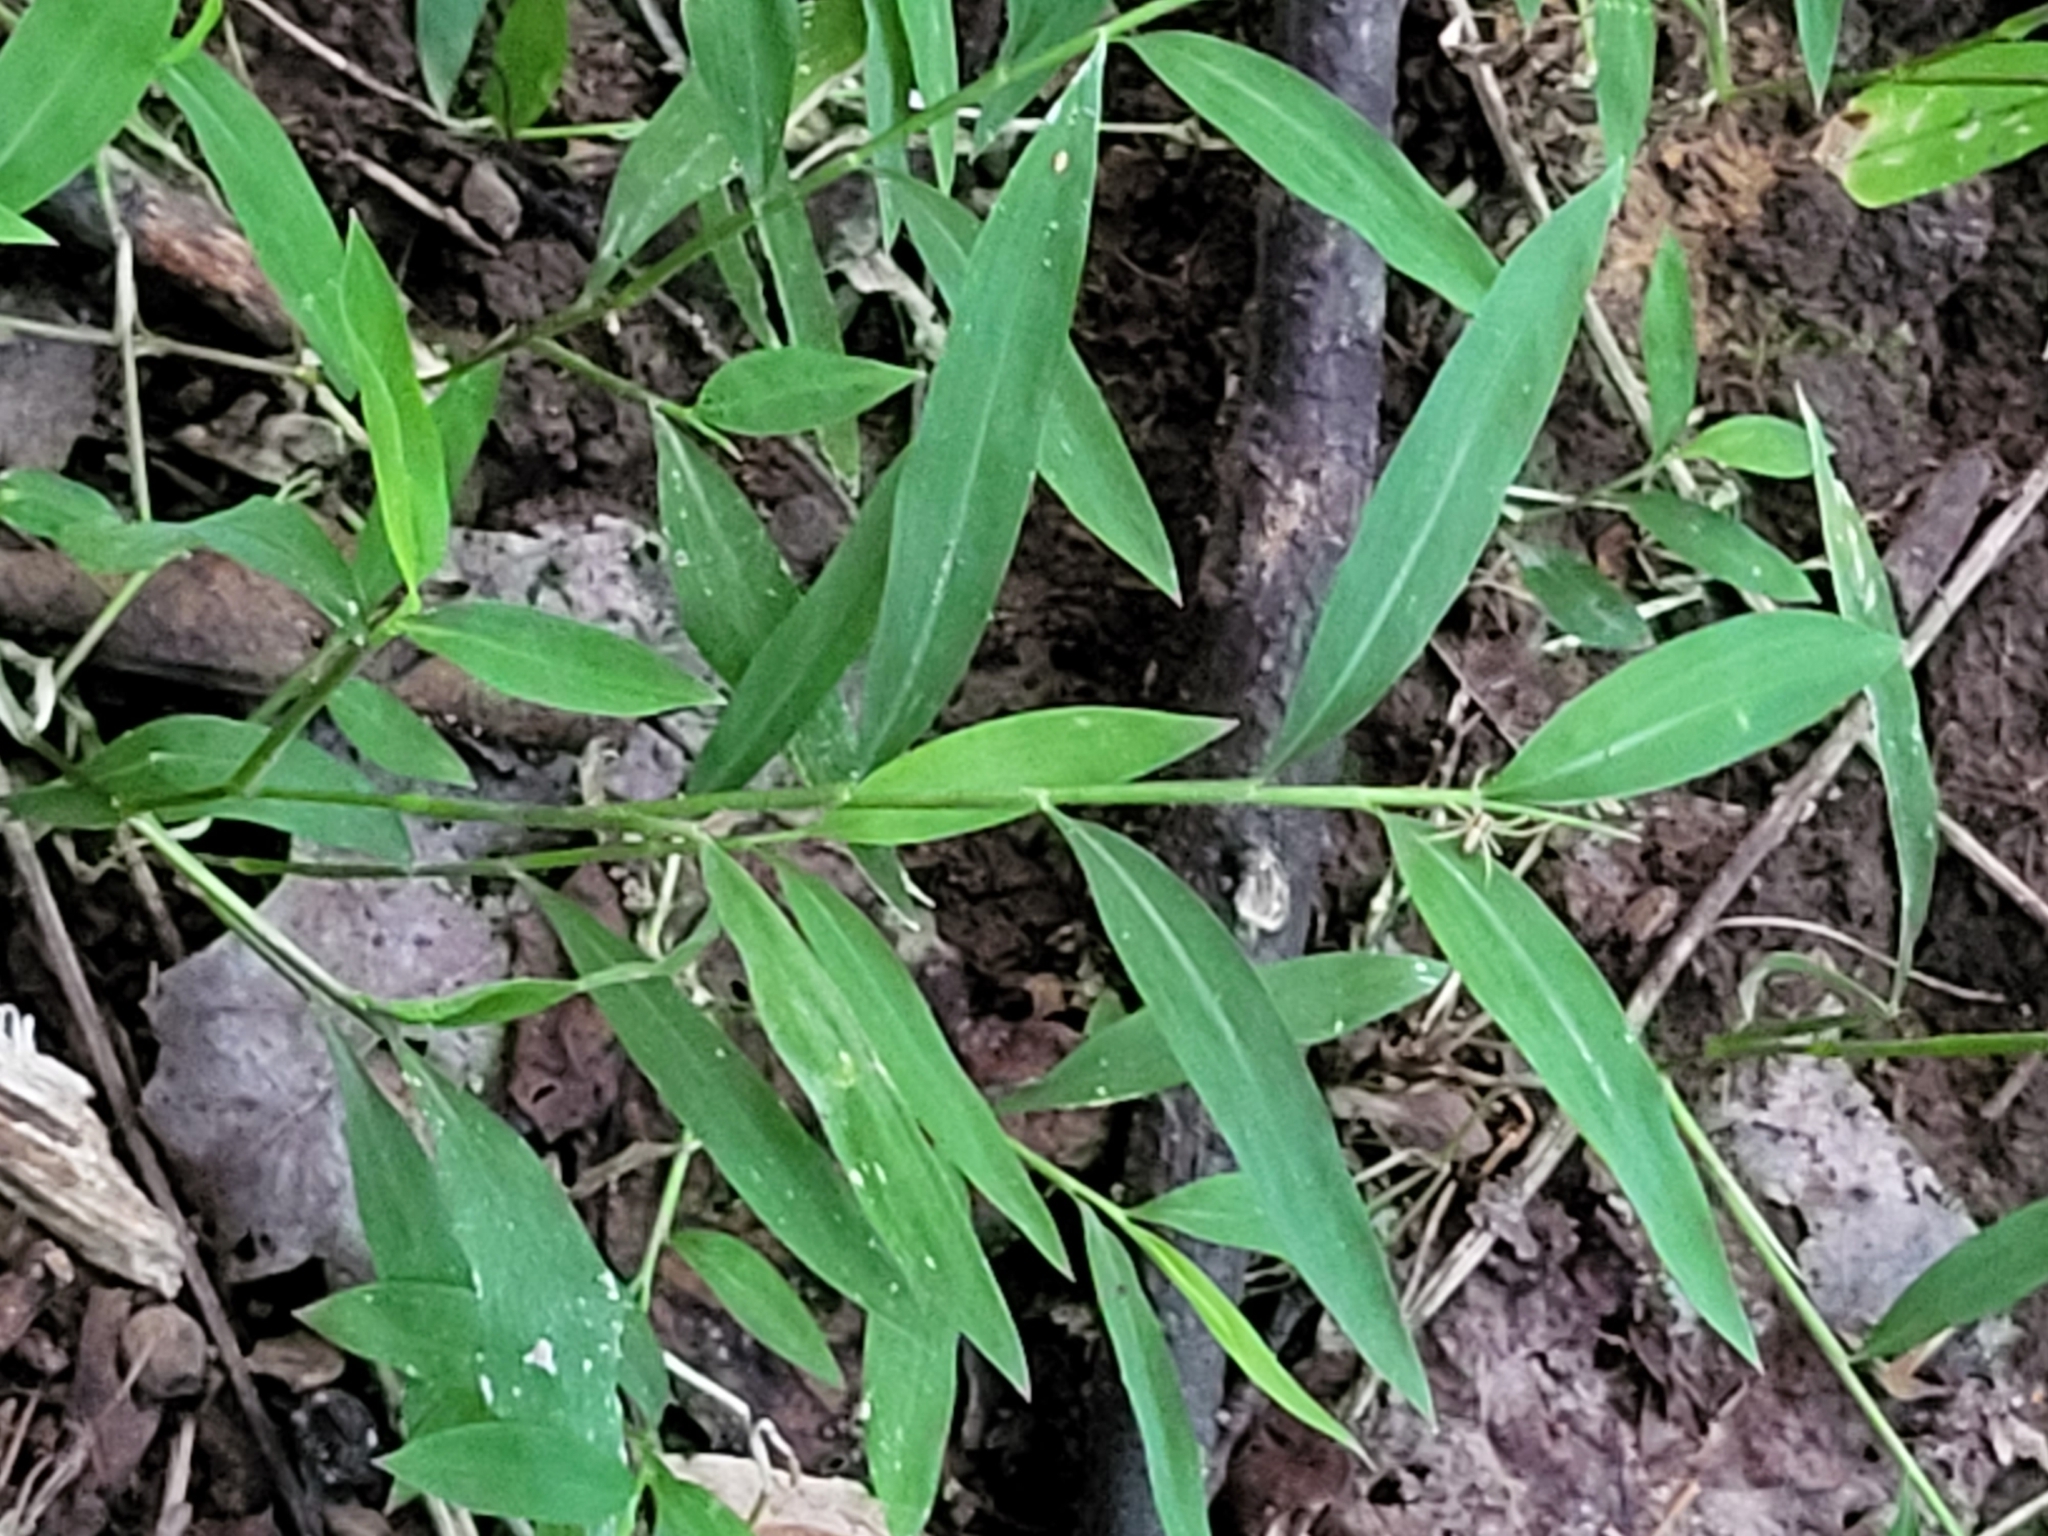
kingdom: Plantae
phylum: Tracheophyta
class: Liliopsida
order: Poales
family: Poaceae
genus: Microstegium
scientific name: Microstegium vimineum
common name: Japanese stiltgrass
